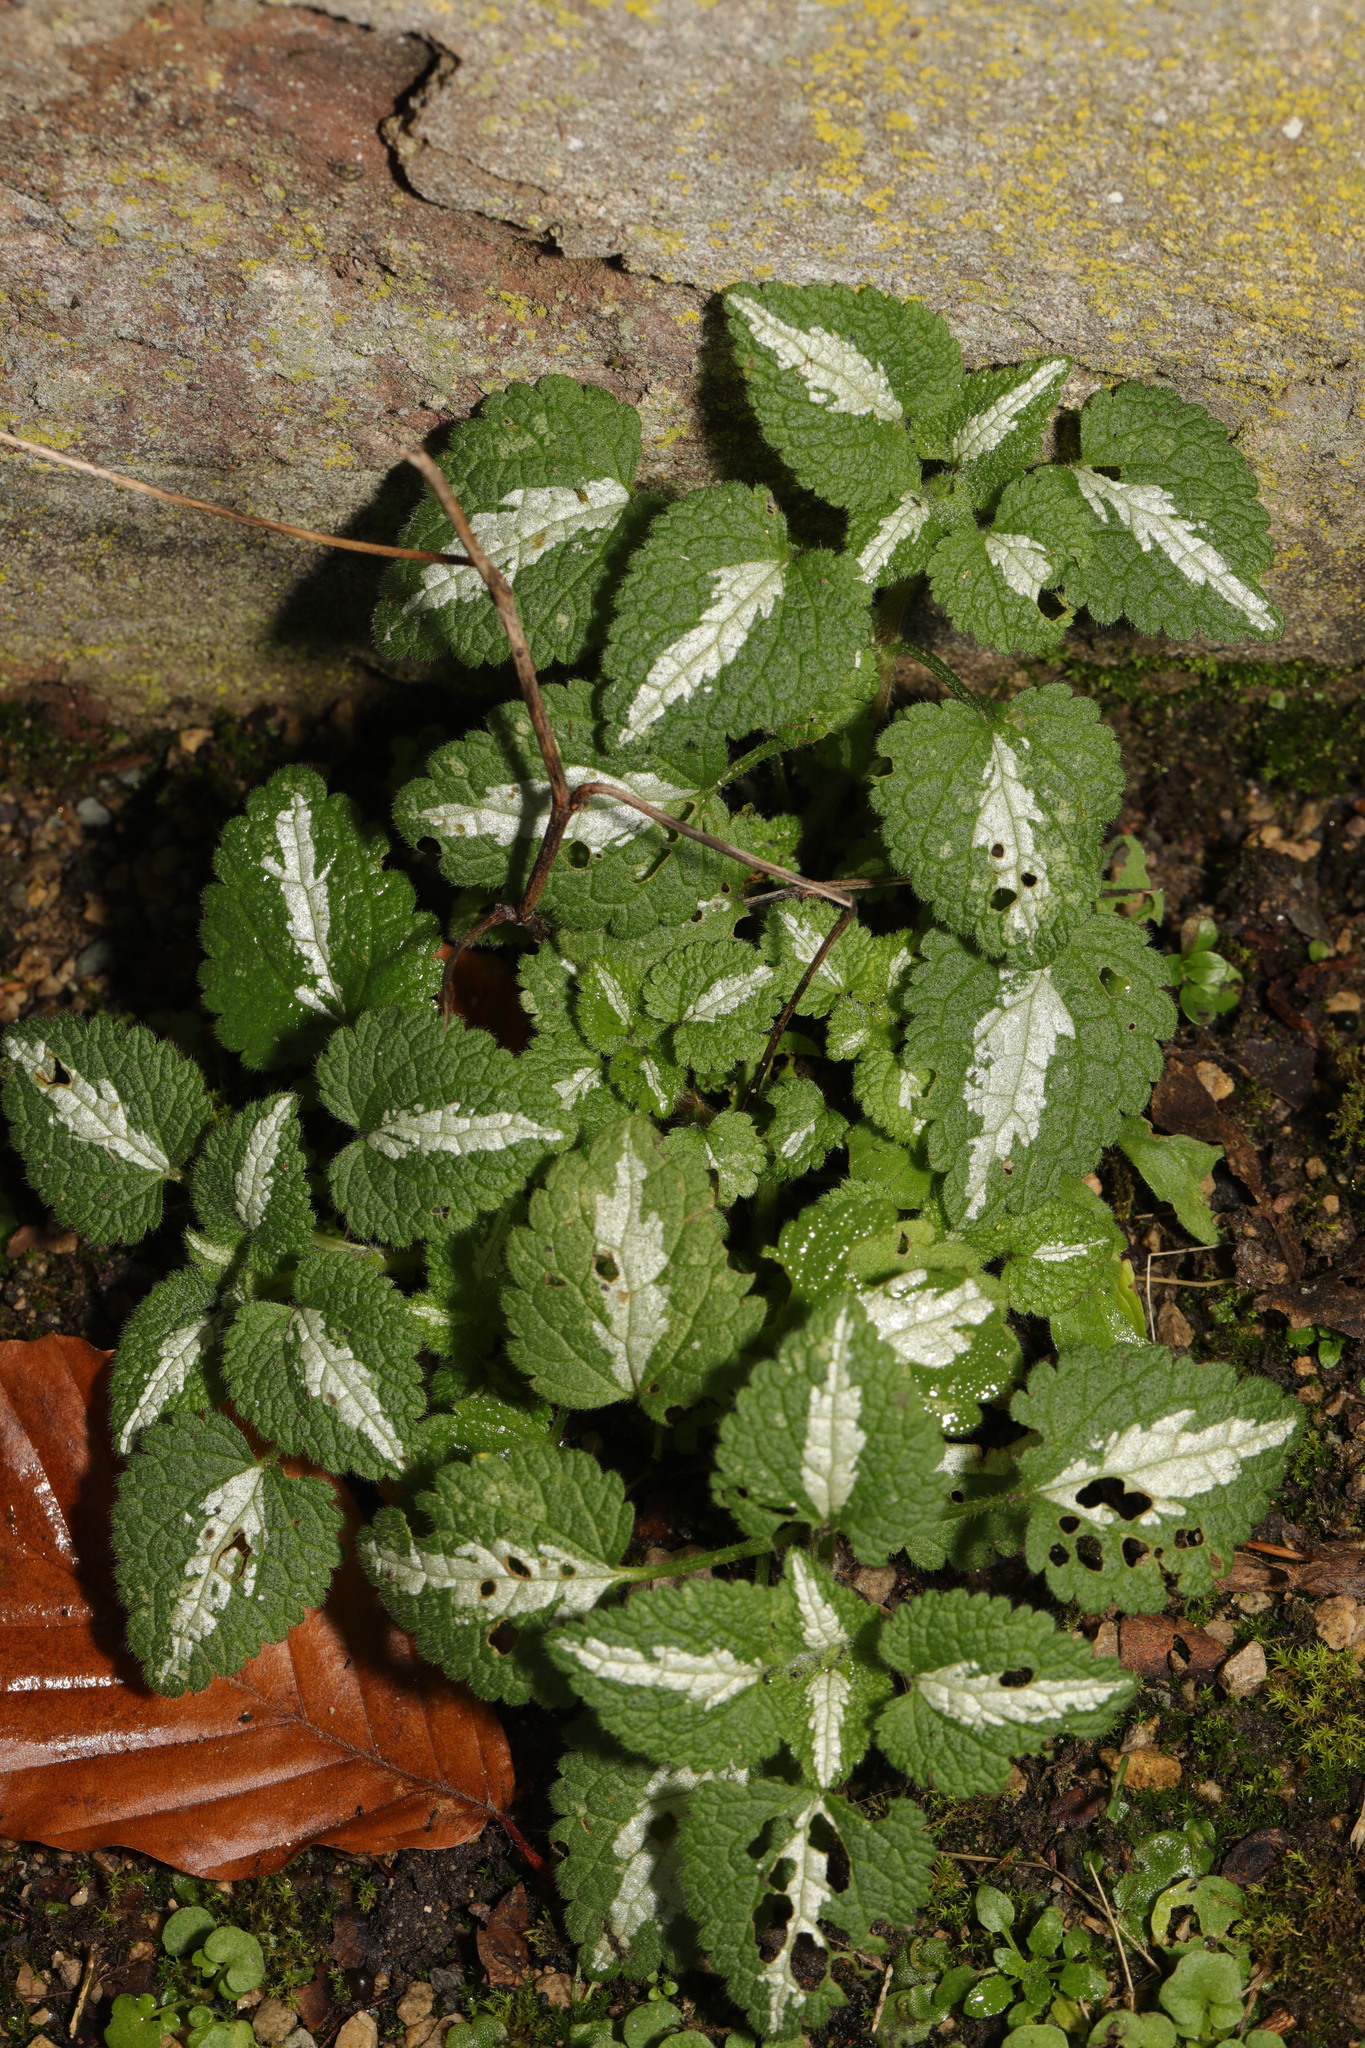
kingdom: Plantae
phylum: Tracheophyta
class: Magnoliopsida
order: Lamiales
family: Lamiaceae
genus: Lamium
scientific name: Lamium maculatum
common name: Spotted dead-nettle
